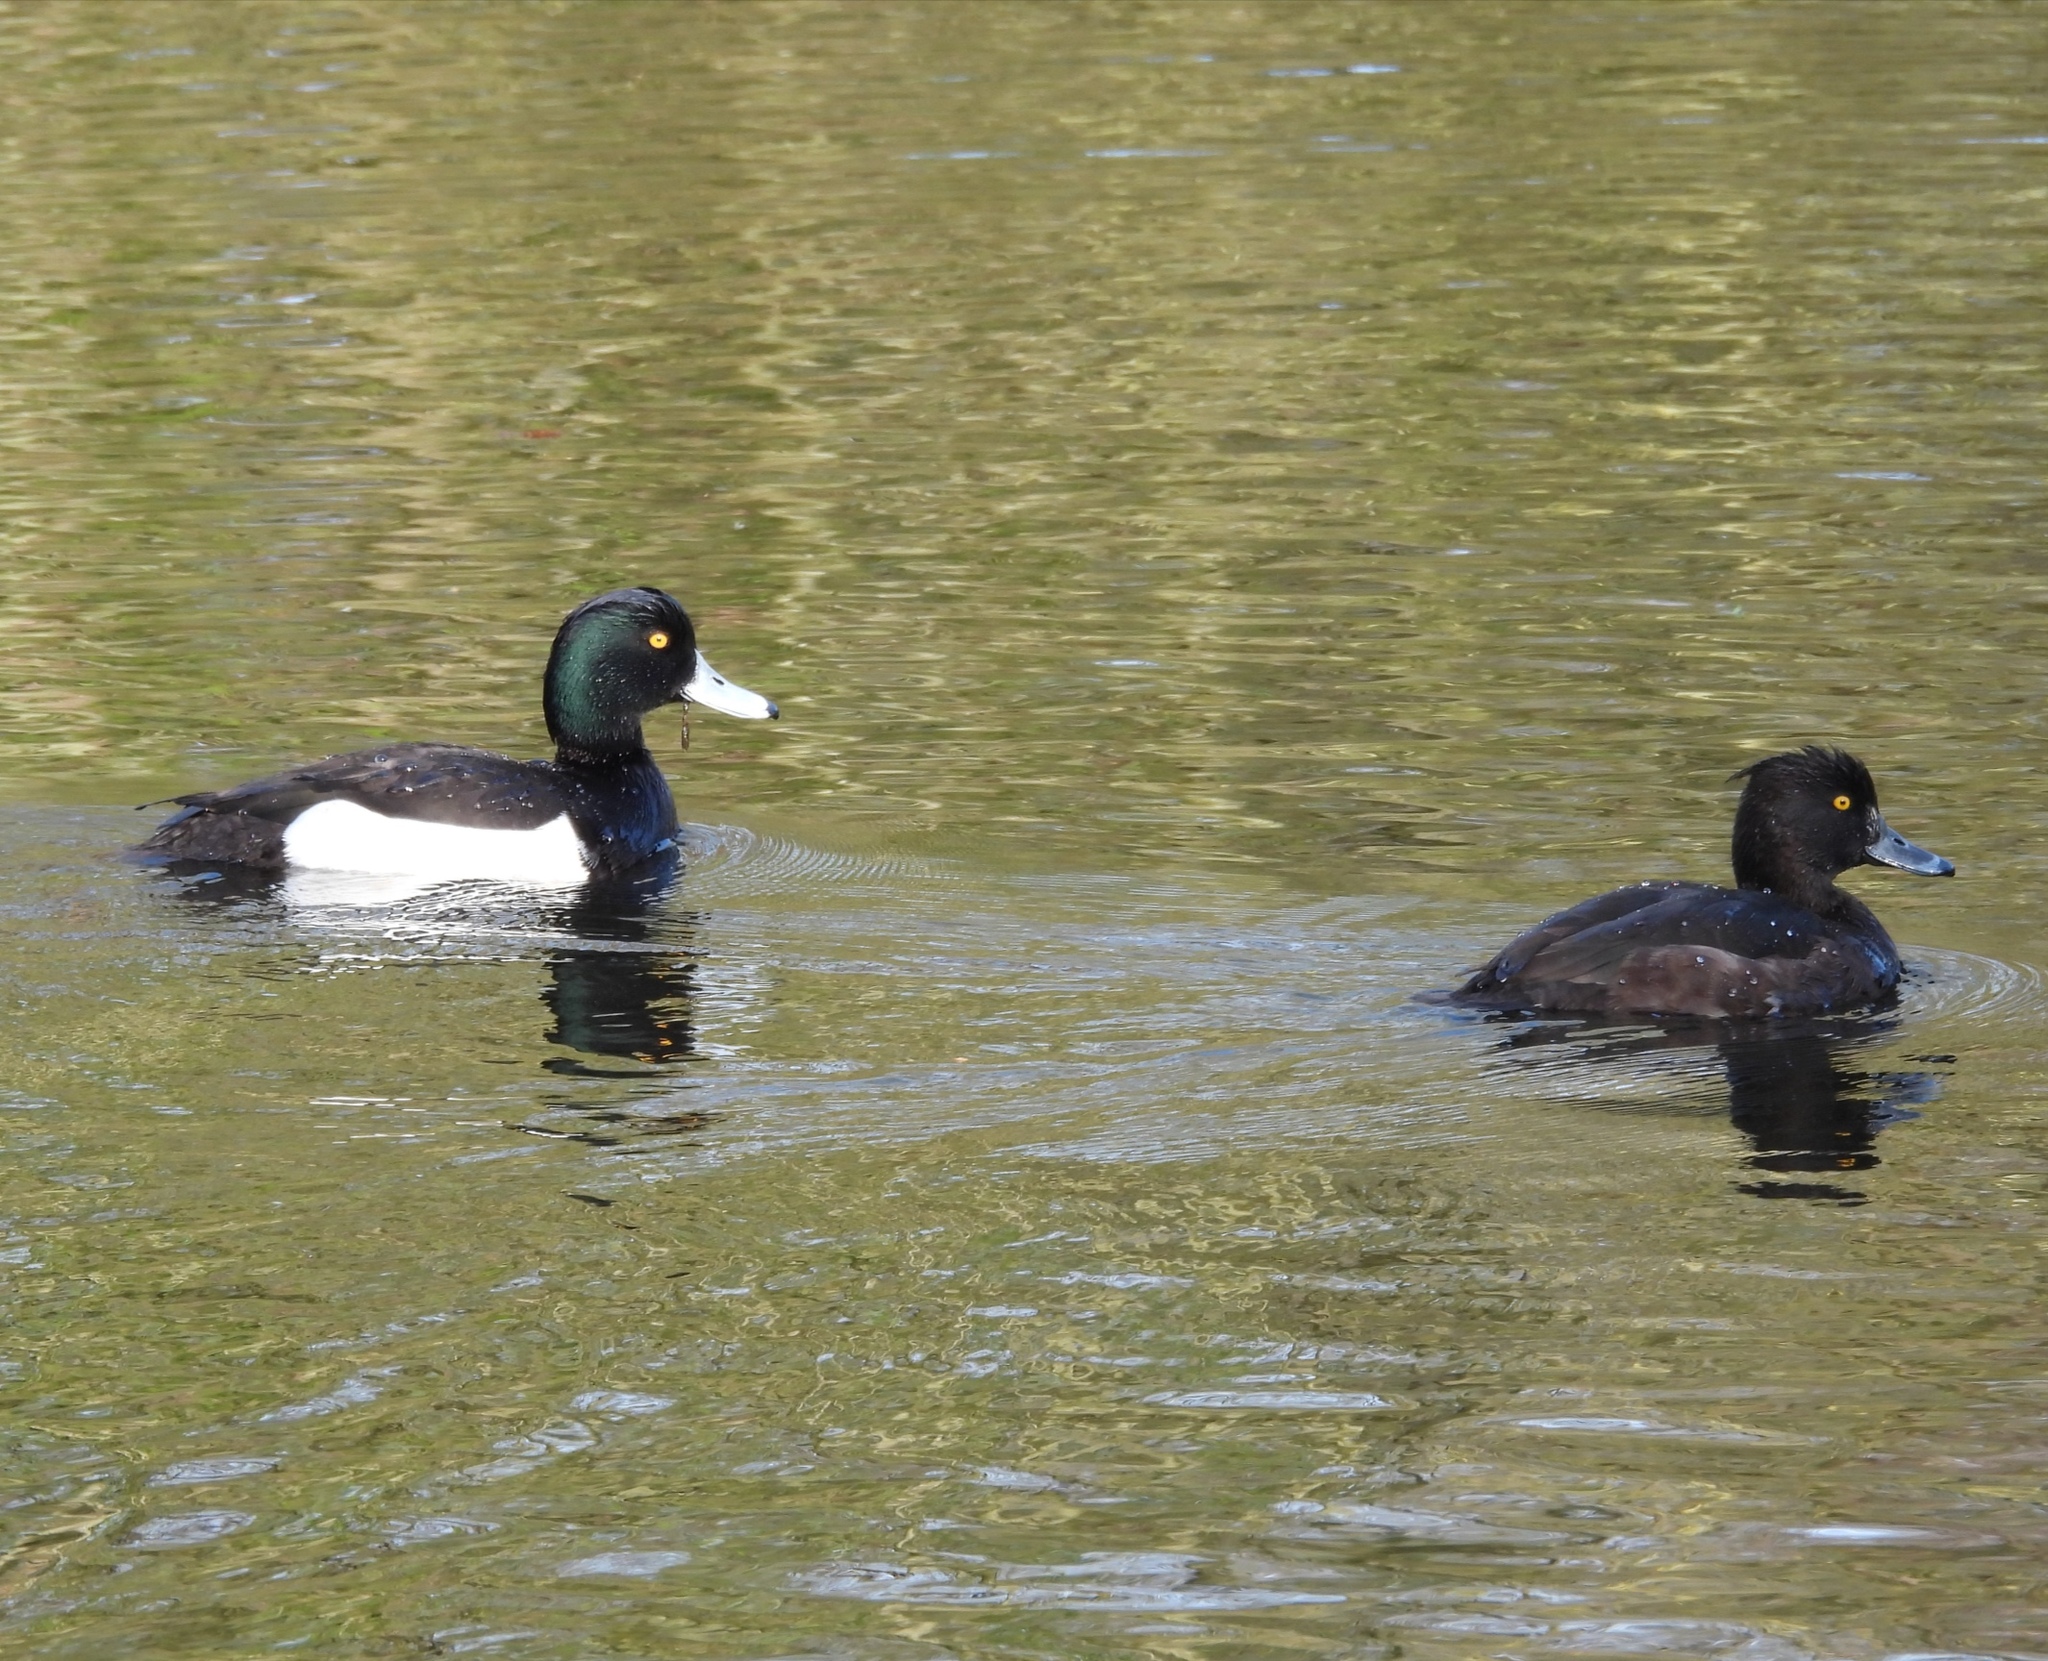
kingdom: Animalia
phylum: Chordata
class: Aves
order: Anseriformes
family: Anatidae
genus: Aythya
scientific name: Aythya fuligula
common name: Tufted duck
